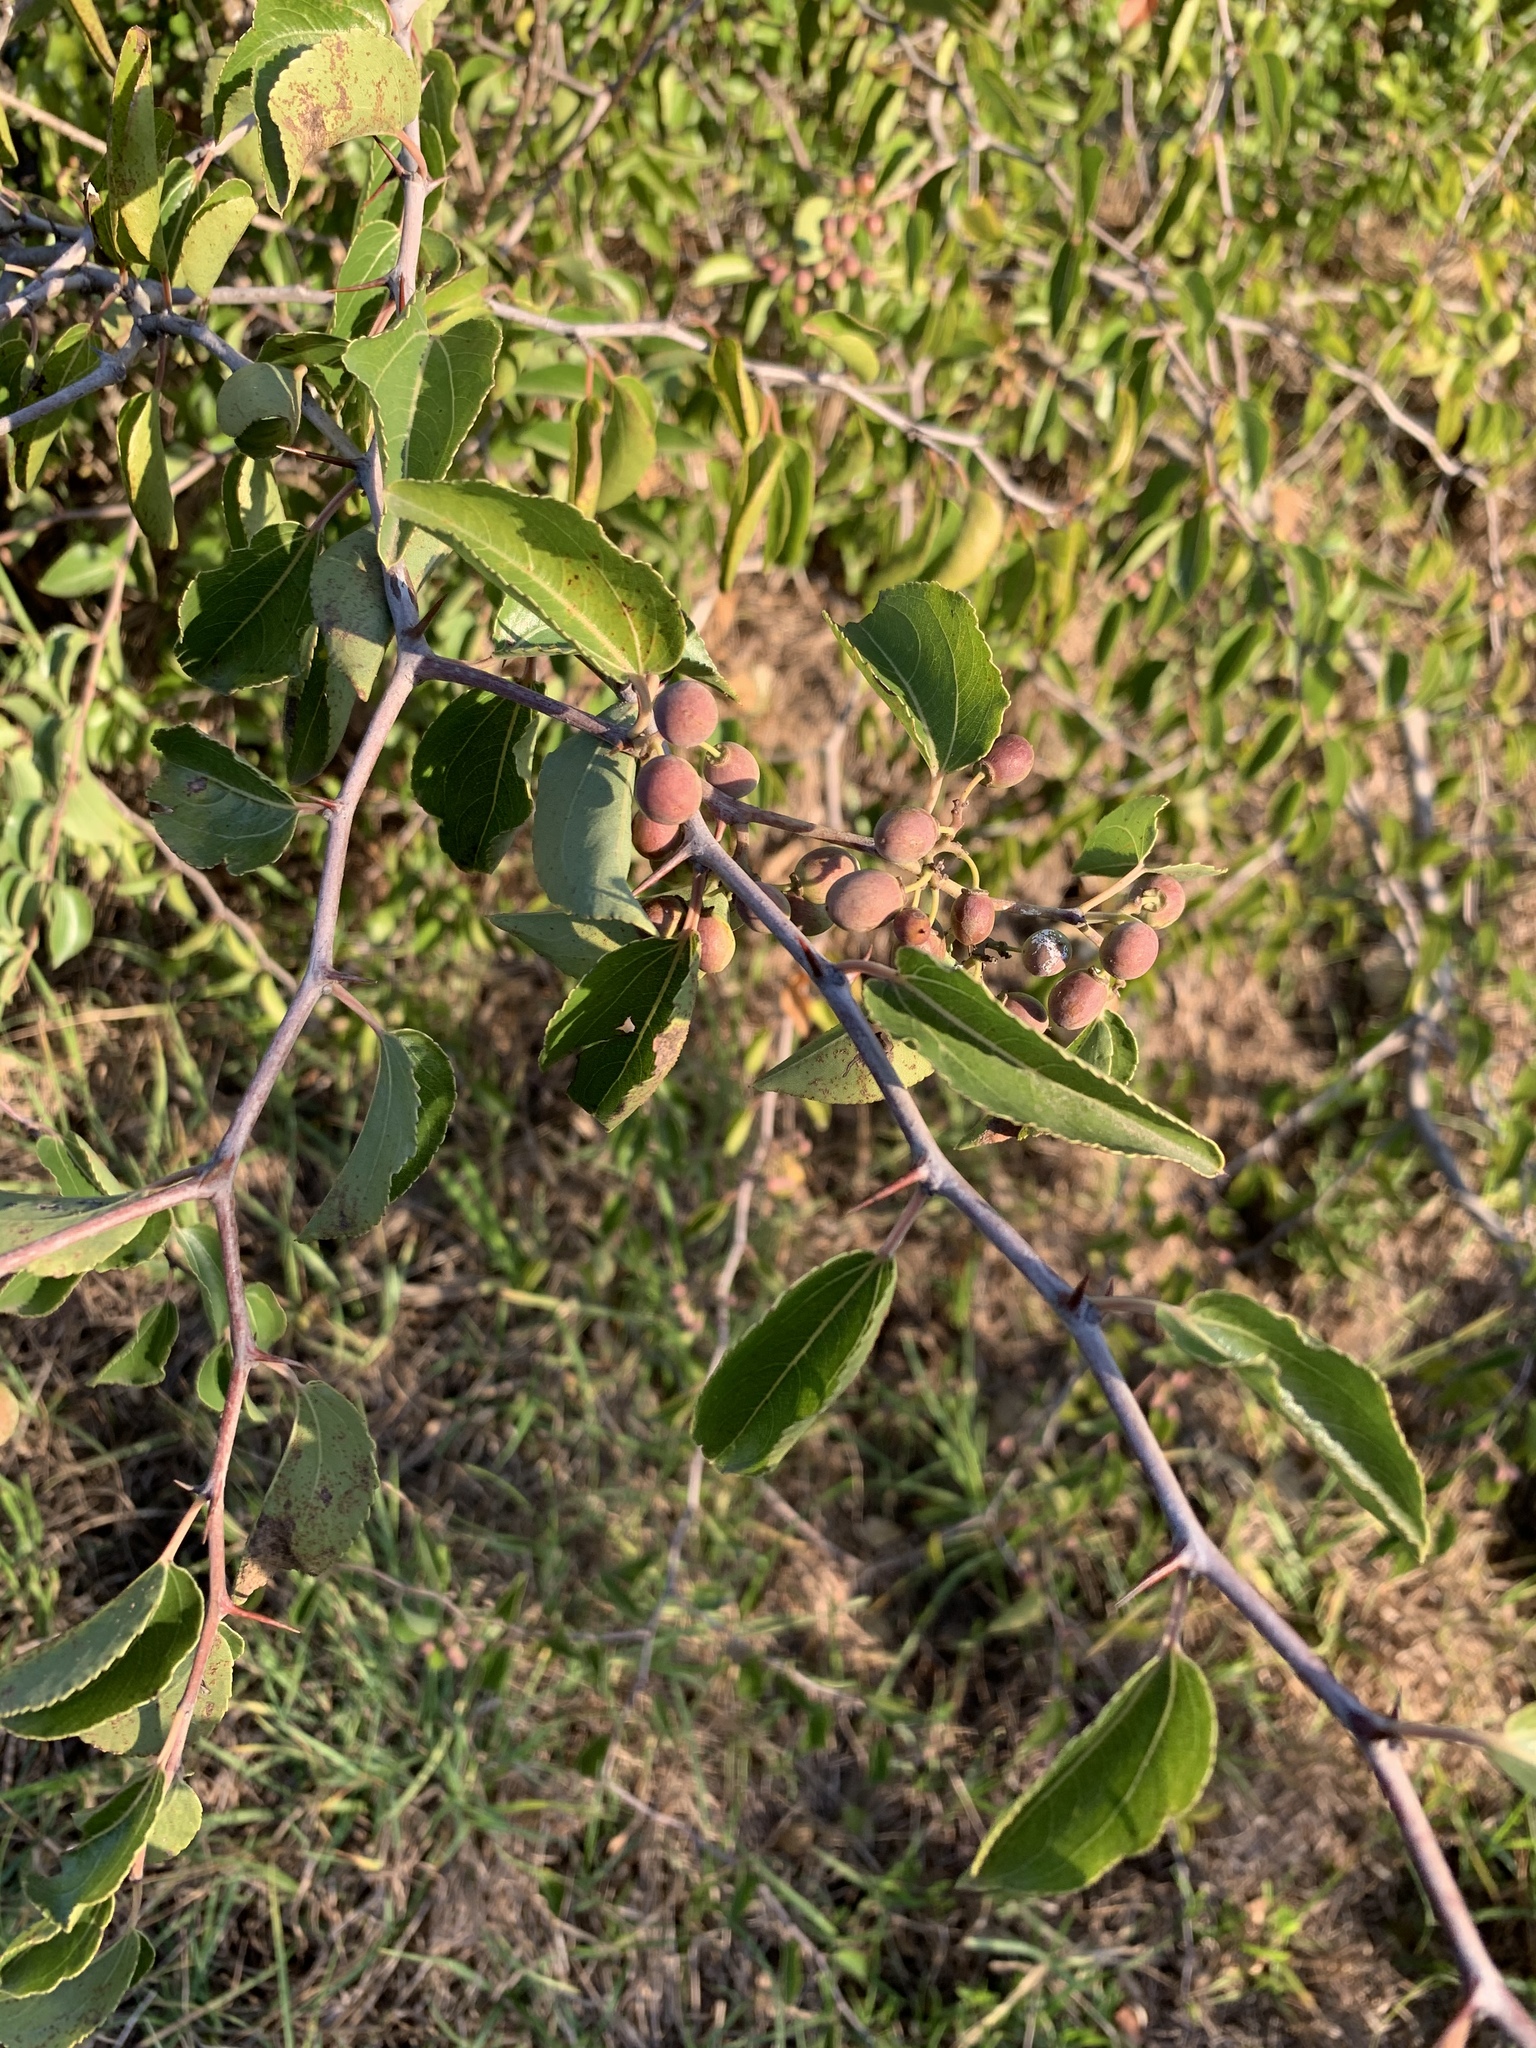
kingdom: Plantae
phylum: Tracheophyta
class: Magnoliopsida
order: Rosales
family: Rhamnaceae
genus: Ziziphus
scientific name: Ziziphus mucronata
